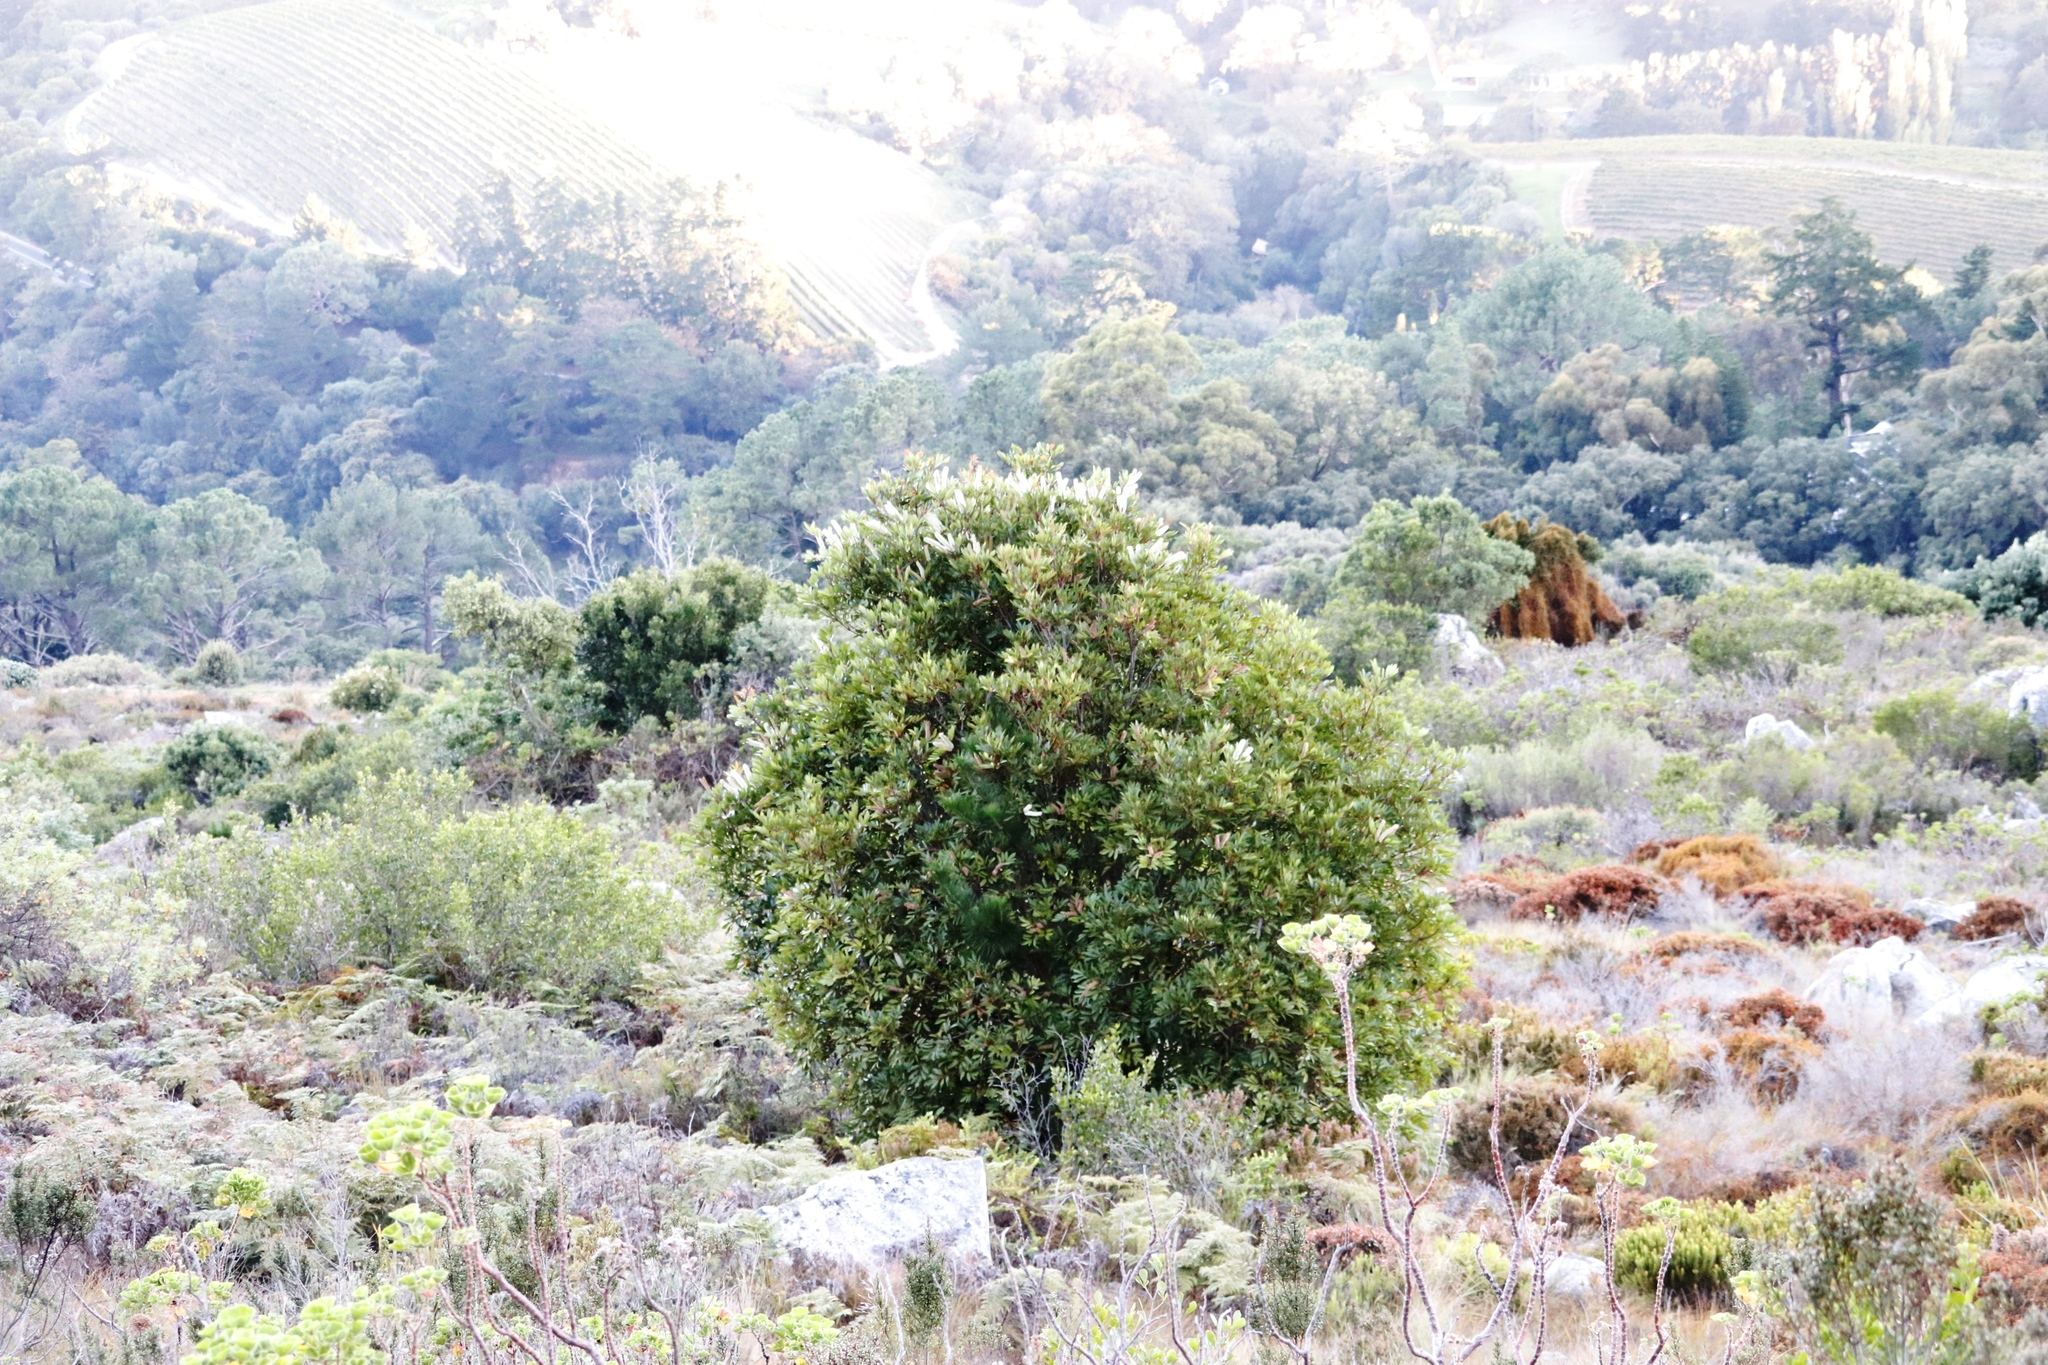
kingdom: Plantae
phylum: Tracheophyta
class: Magnoliopsida
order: Oxalidales
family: Cunoniaceae
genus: Cunonia
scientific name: Cunonia capensis
